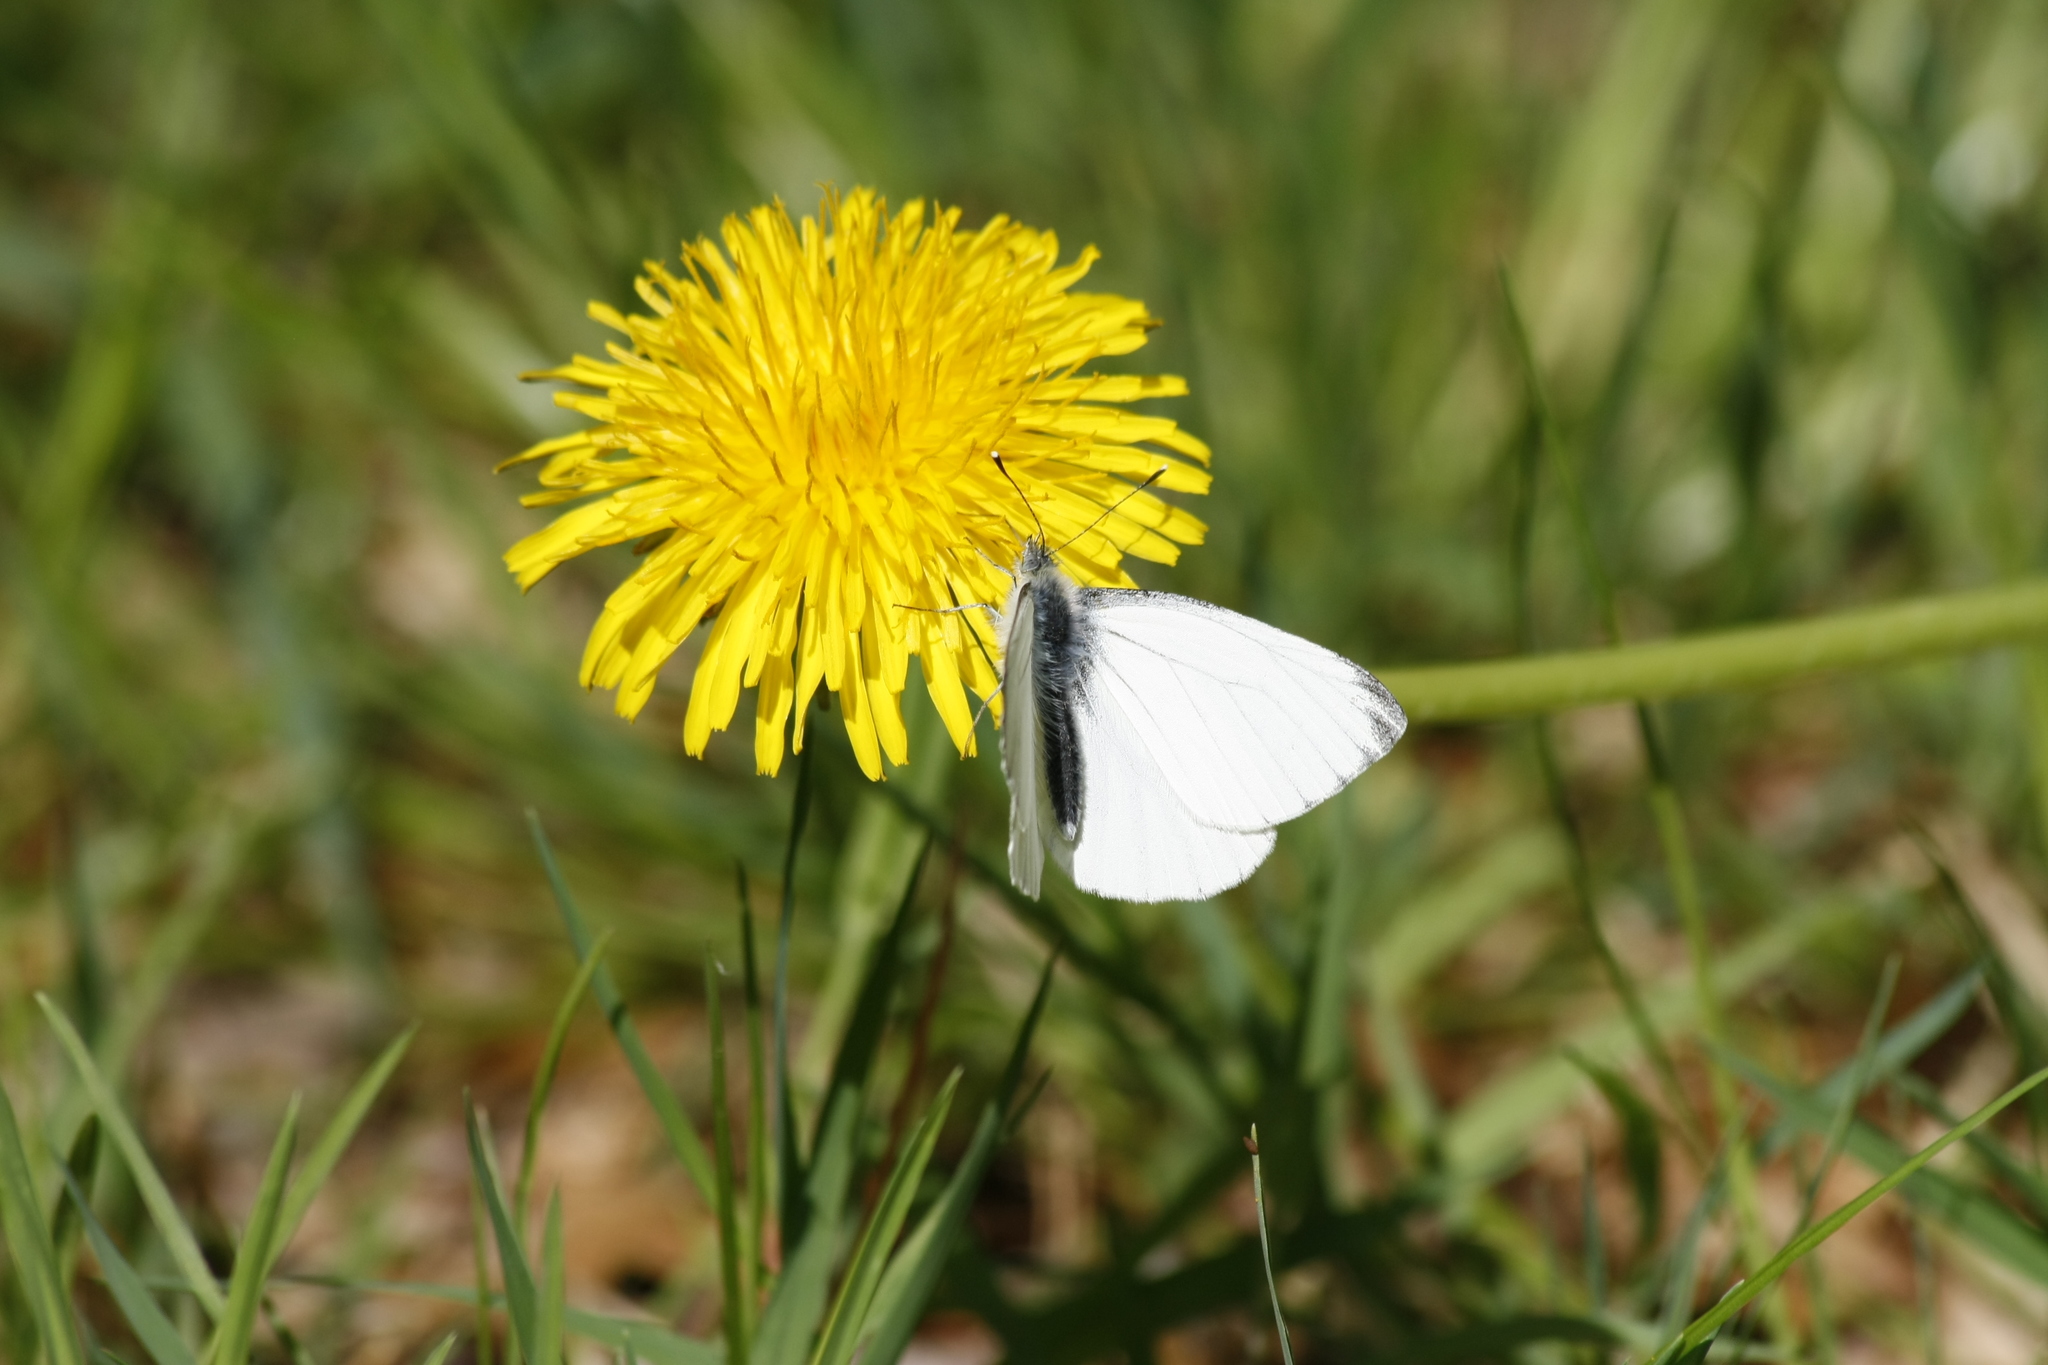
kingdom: Animalia
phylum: Arthropoda
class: Insecta
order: Lepidoptera
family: Pieridae
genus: Pieris
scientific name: Pieris napi
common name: Green-veined white
